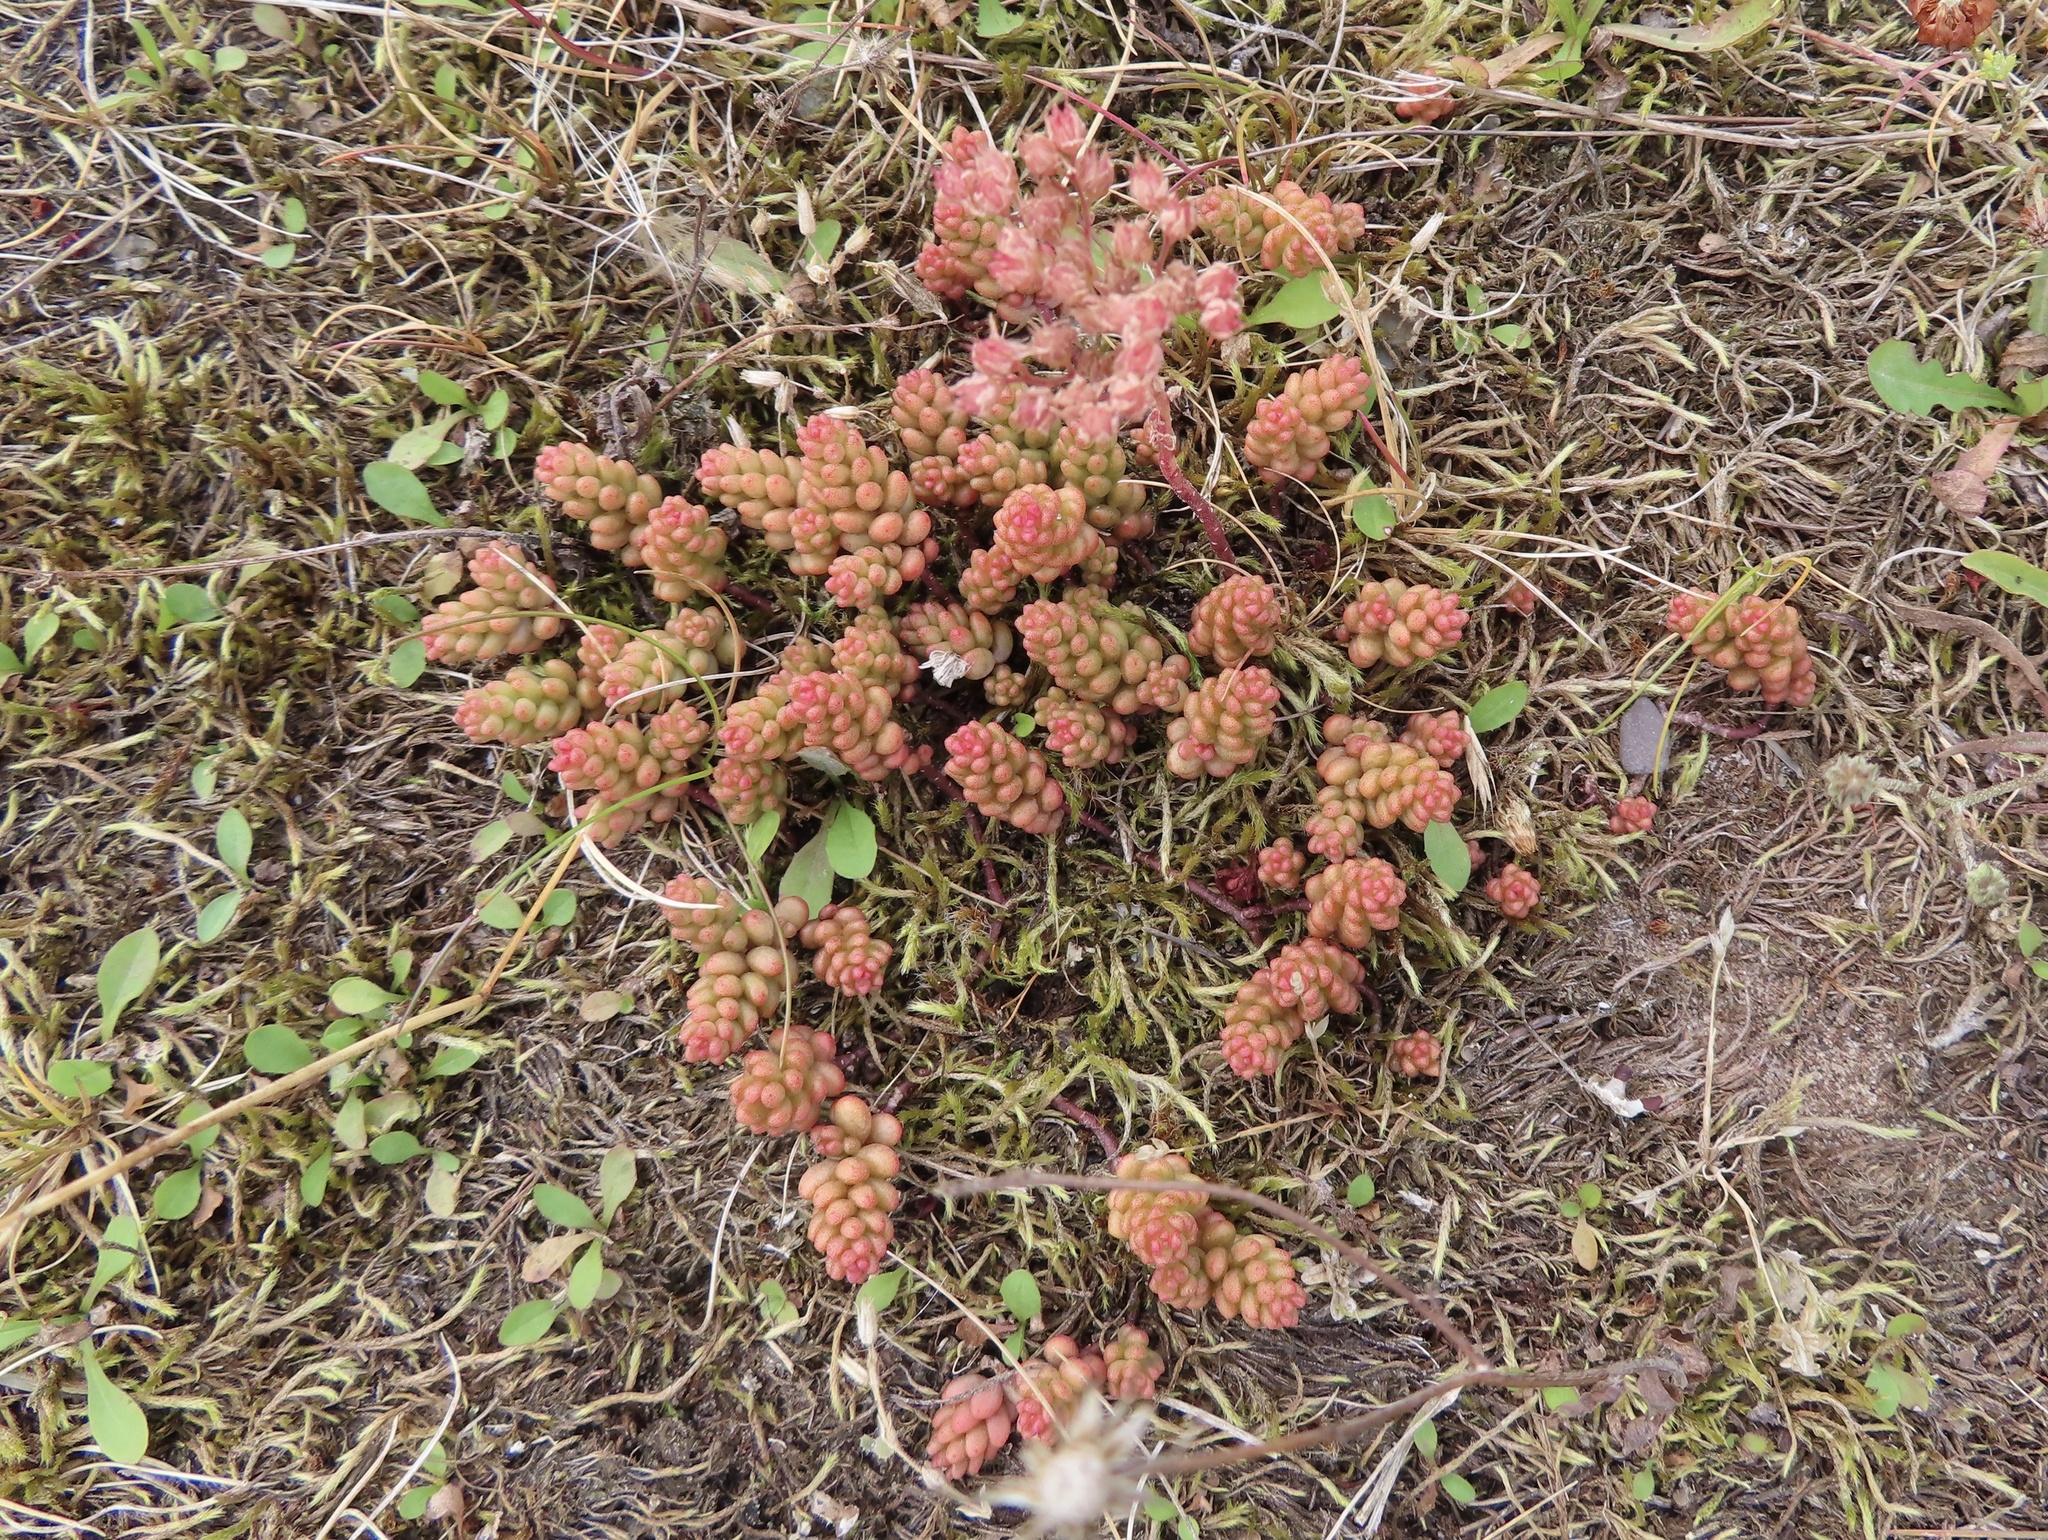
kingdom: Plantae
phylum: Tracheophyta
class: Magnoliopsida
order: Saxifragales
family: Crassulaceae
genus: Sedum
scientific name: Sedum album
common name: White stonecrop
